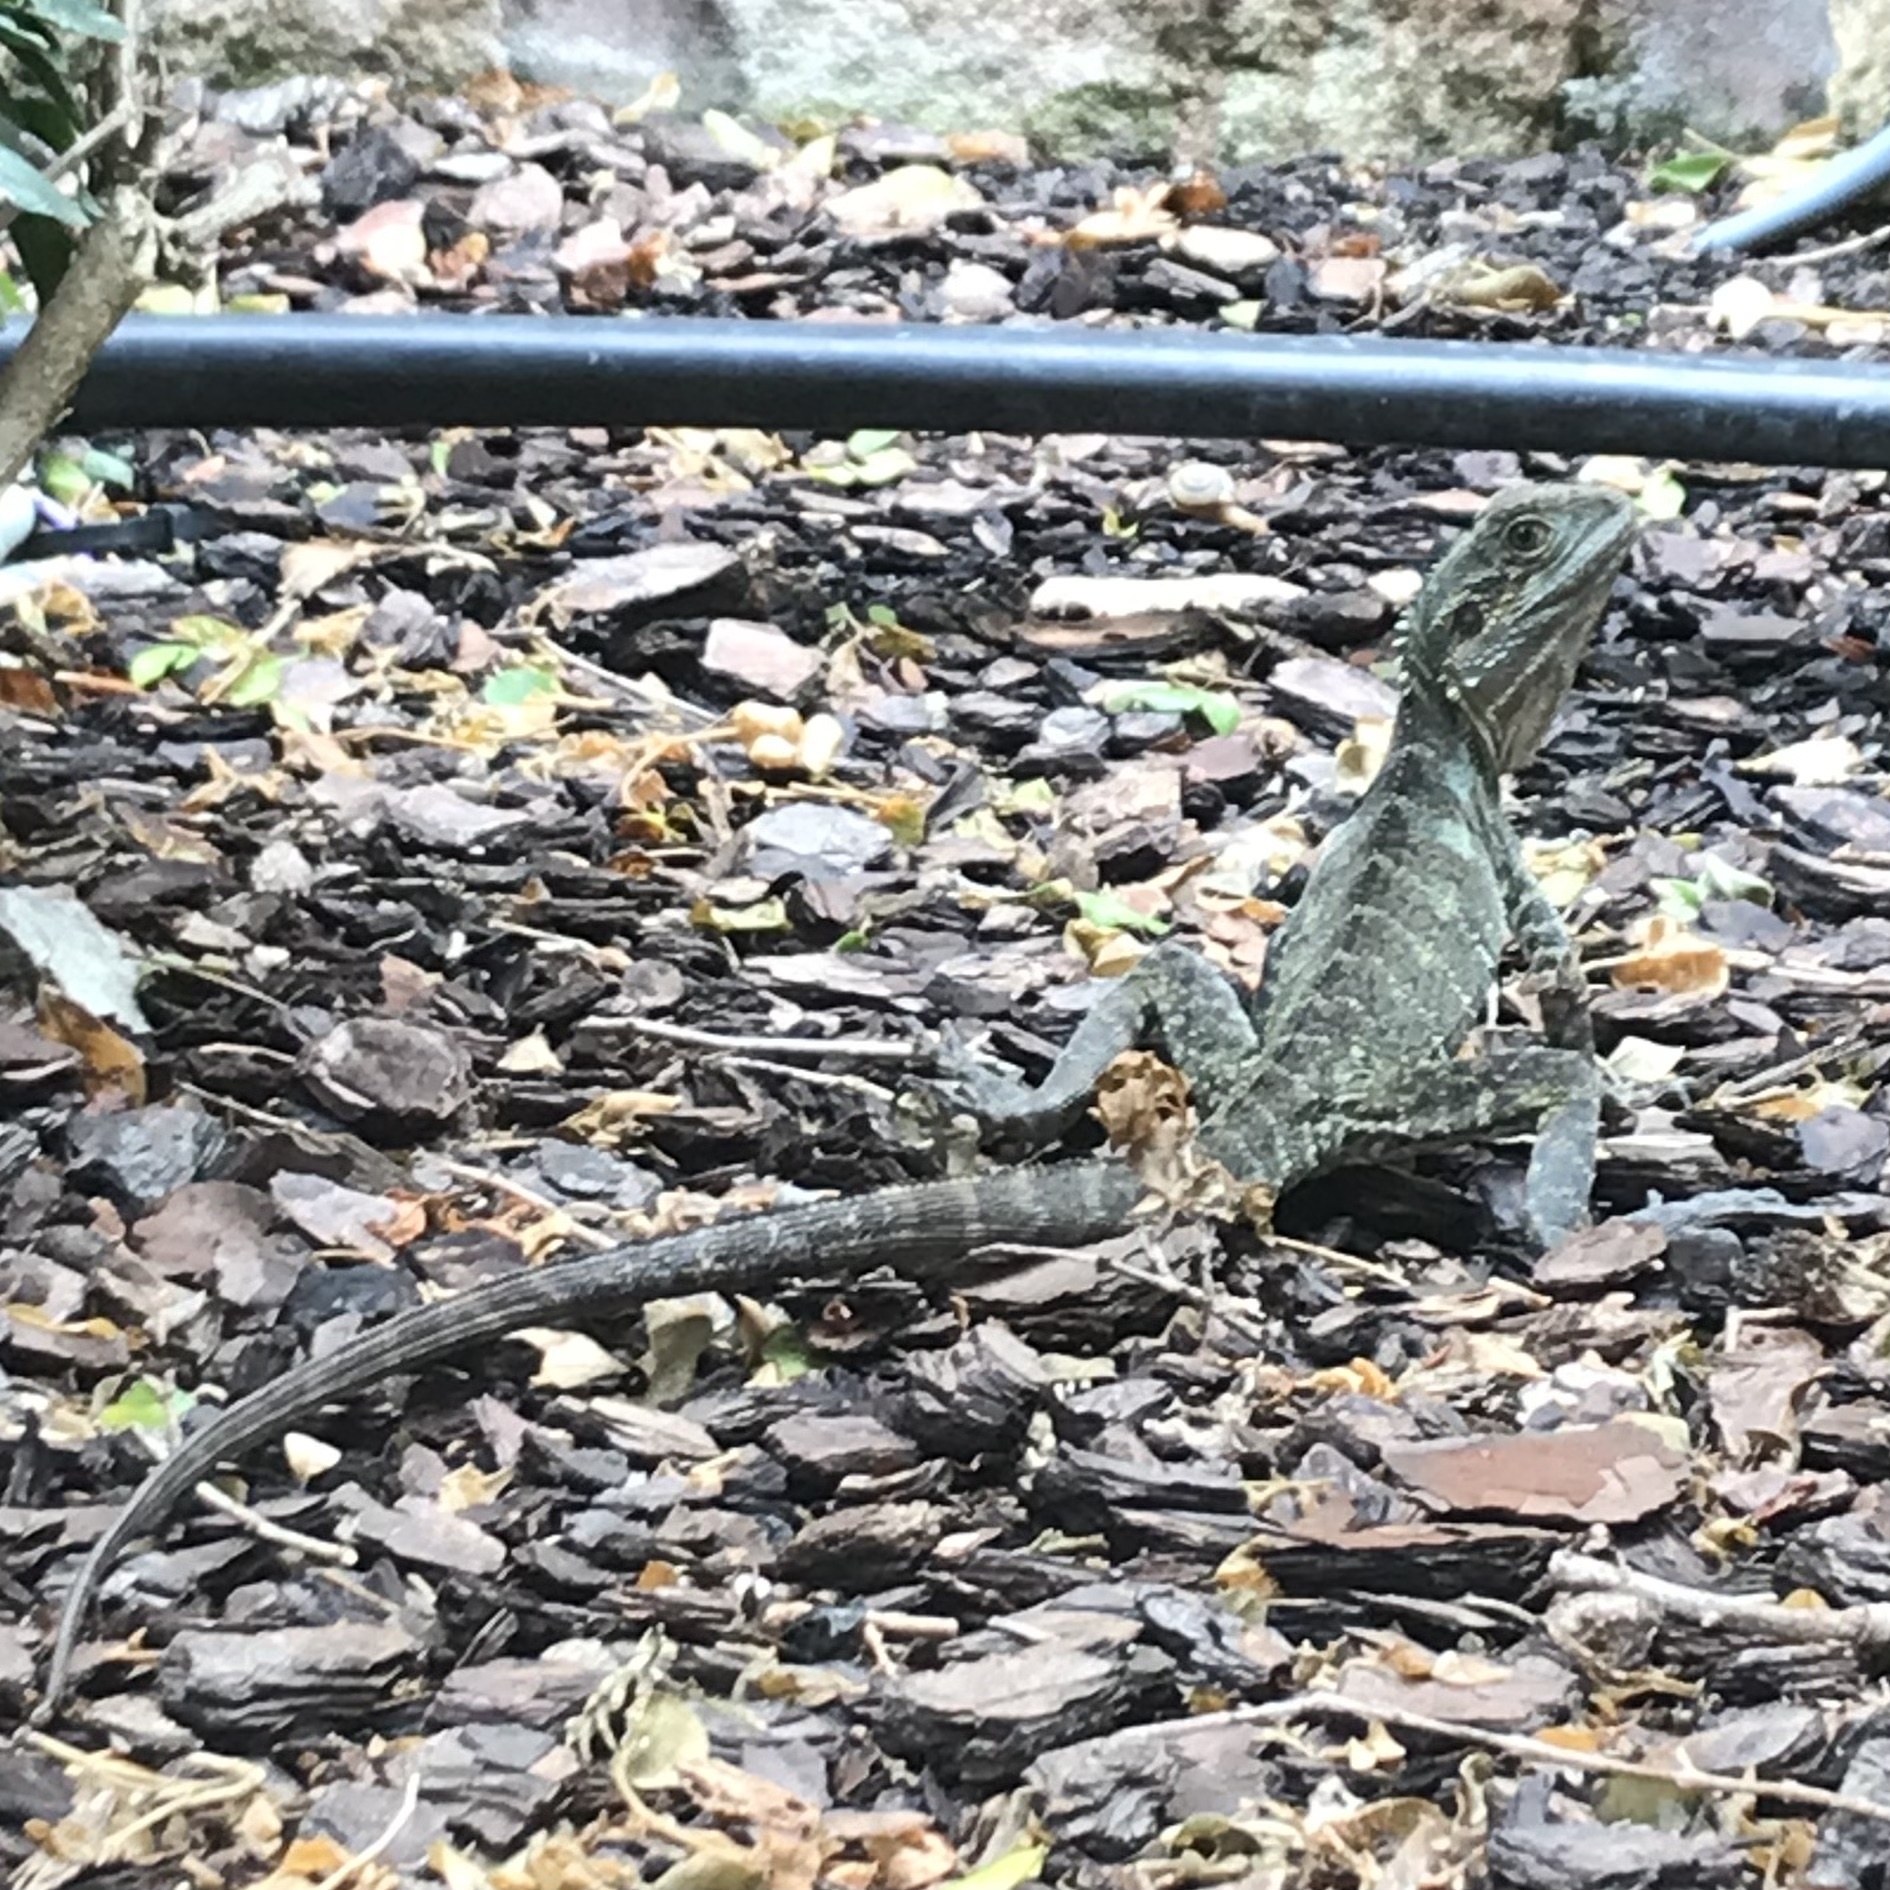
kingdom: Animalia
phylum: Chordata
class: Squamata
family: Agamidae
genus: Intellagama
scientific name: Intellagama lesueurii
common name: Eastern water dragon
